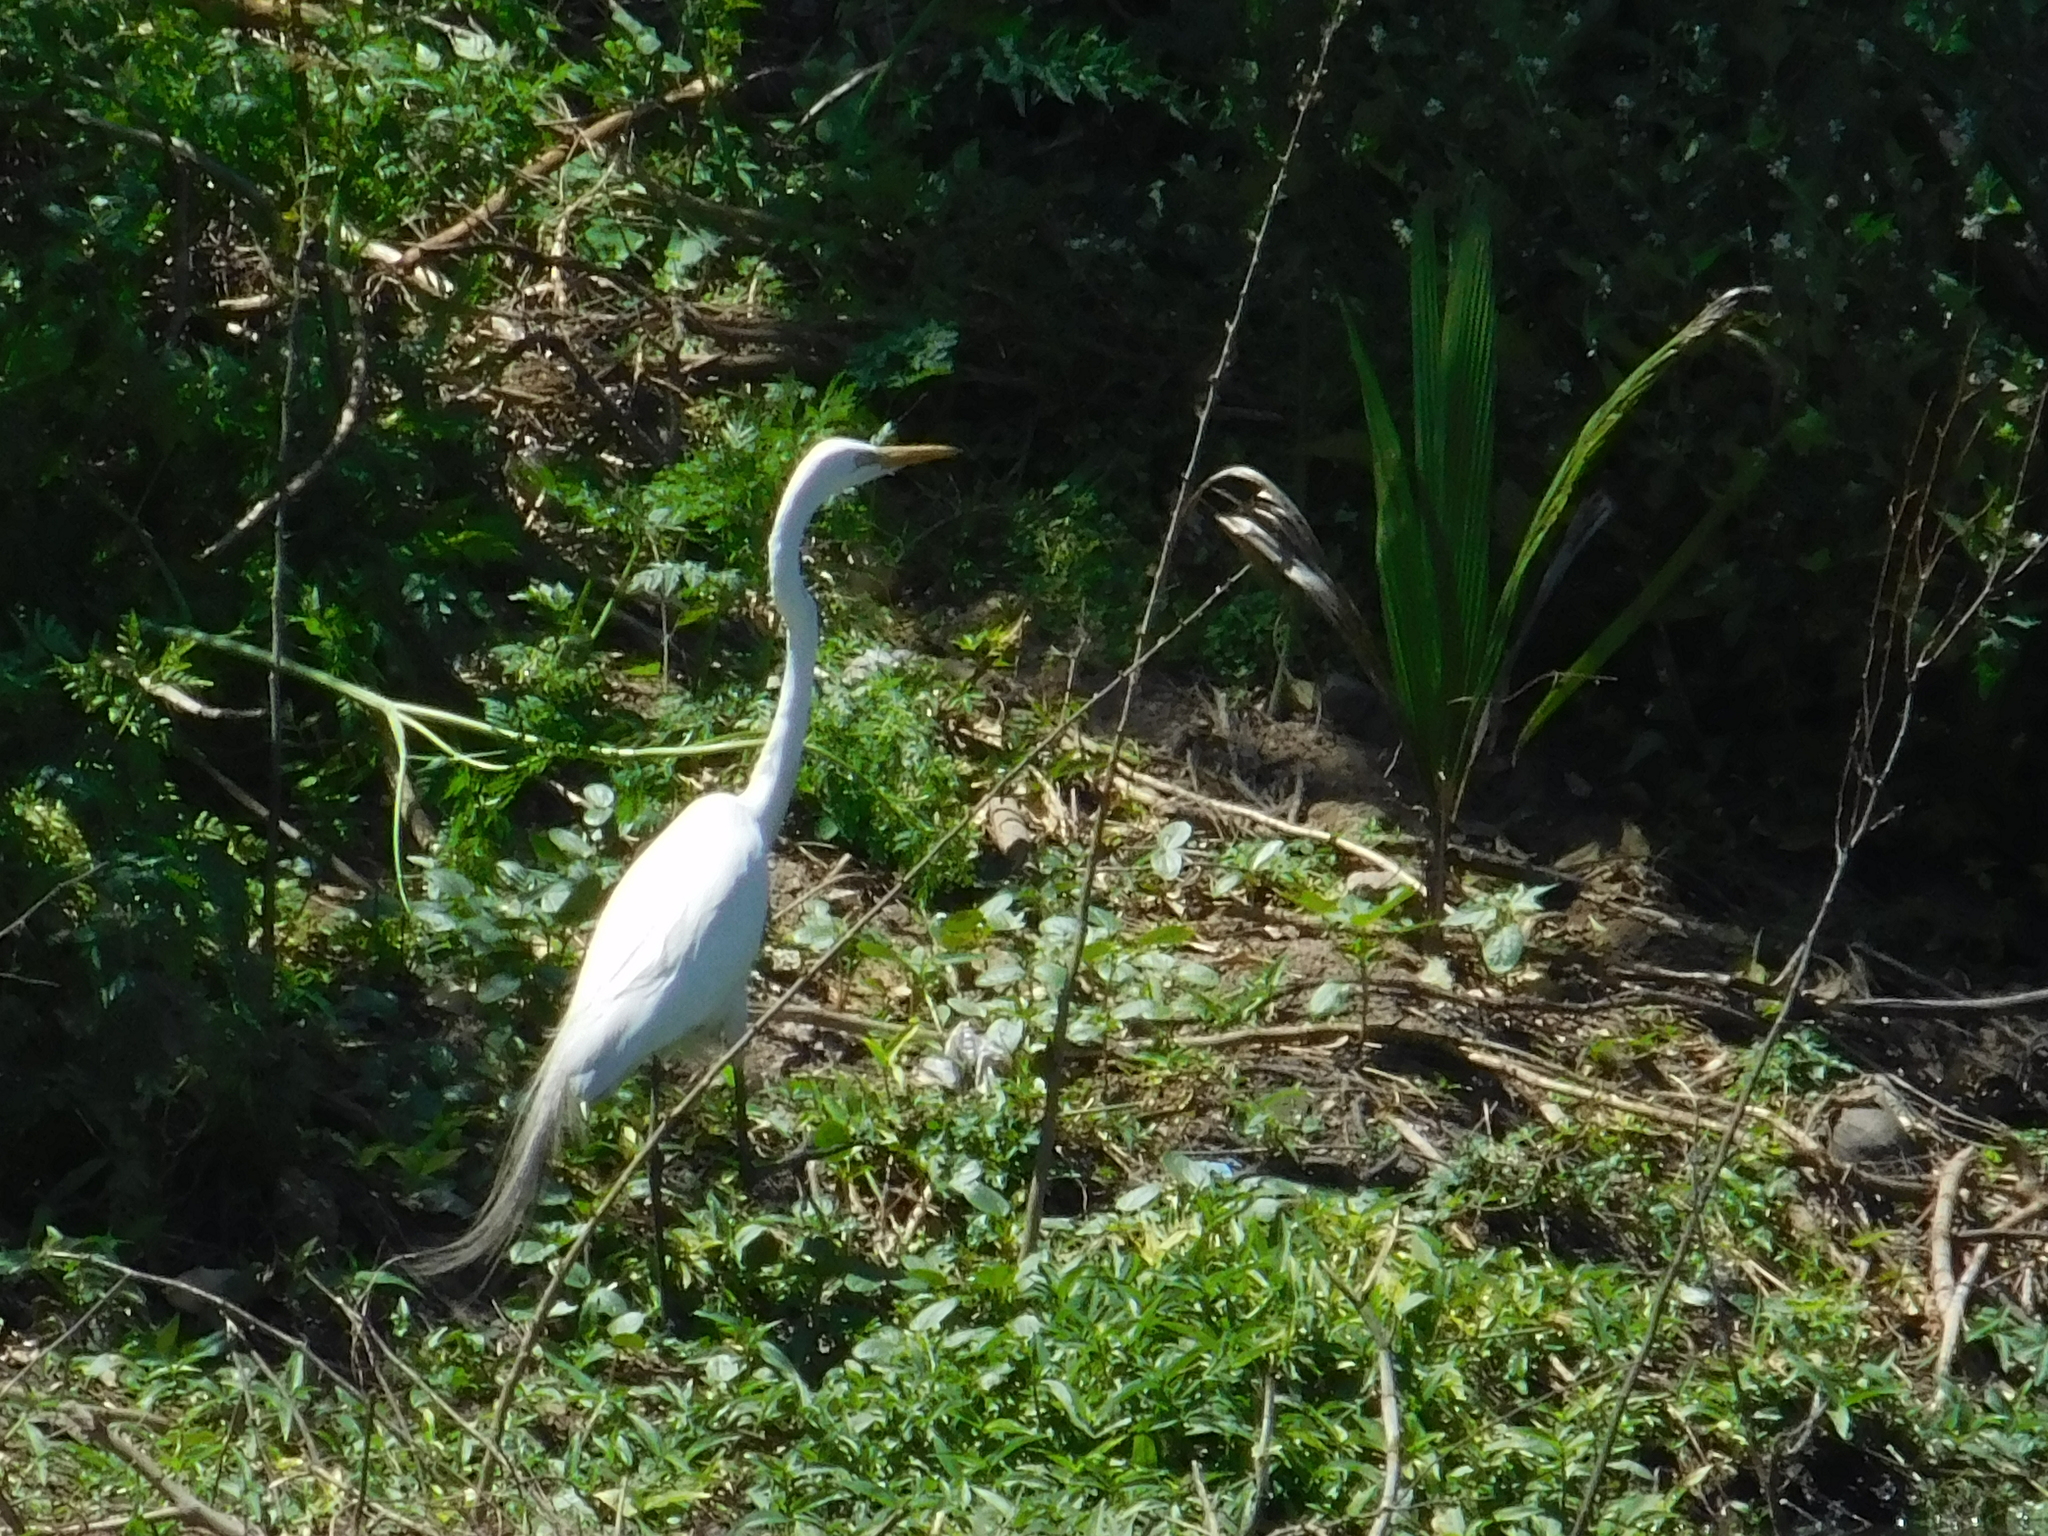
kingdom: Animalia
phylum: Chordata
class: Aves
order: Pelecaniformes
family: Ardeidae
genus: Ardea
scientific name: Ardea alba
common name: Great egret
